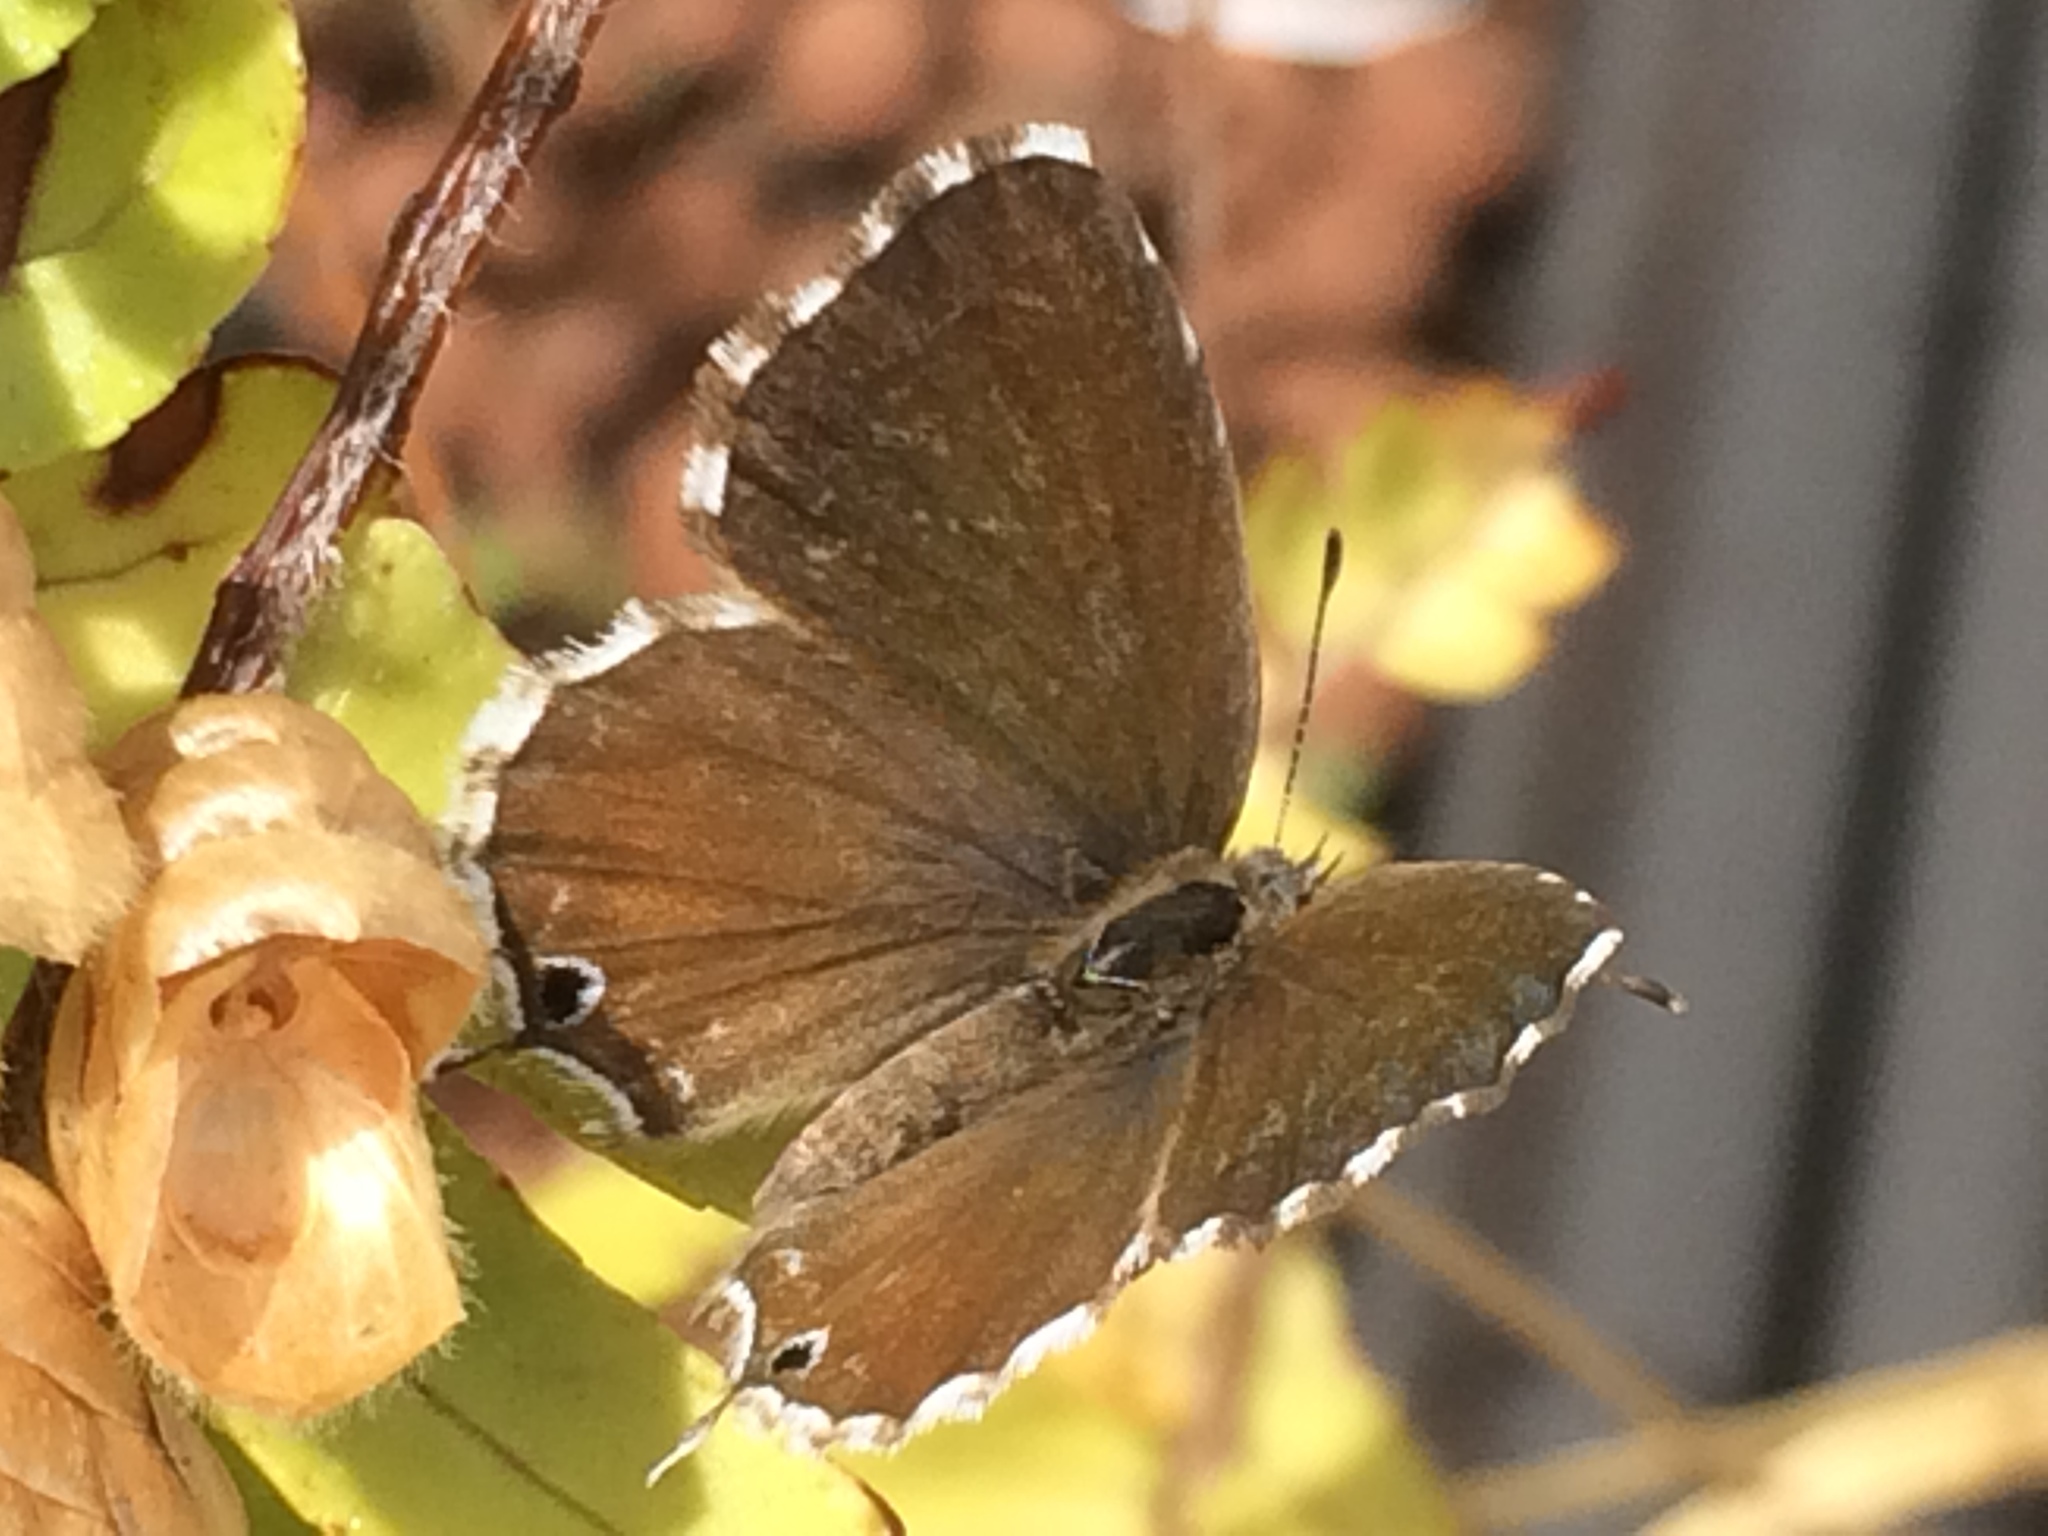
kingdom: Animalia
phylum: Arthropoda
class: Insecta
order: Lepidoptera
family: Lycaenidae
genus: Cacyreus
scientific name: Cacyreus marshalli
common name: Geranium bronze
